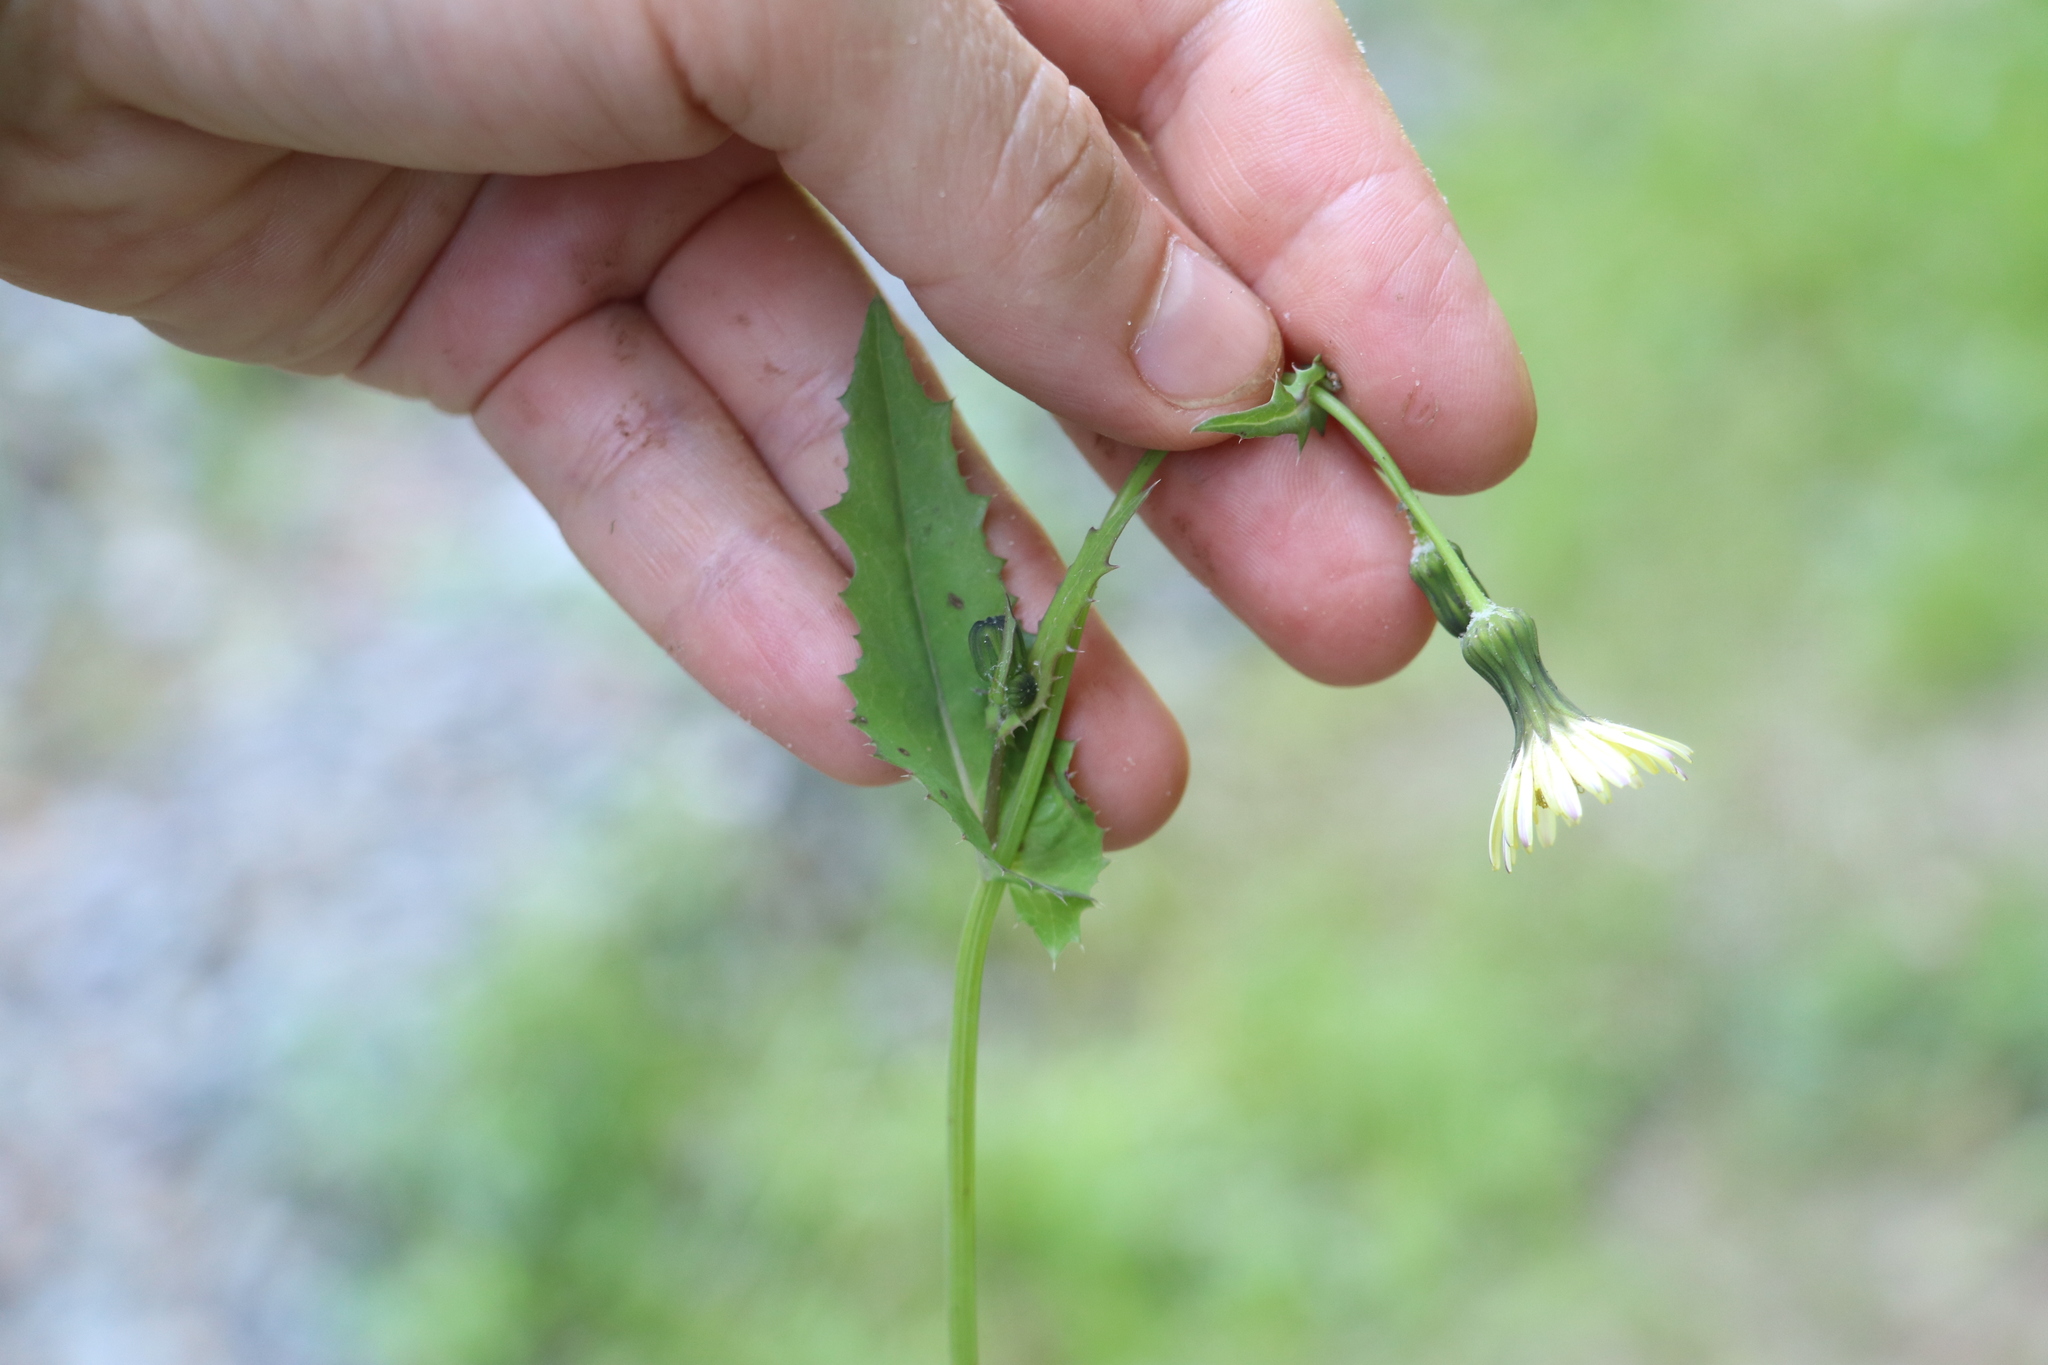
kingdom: Plantae
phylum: Tracheophyta
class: Magnoliopsida
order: Asterales
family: Asteraceae
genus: Sonchus
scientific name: Sonchus oleraceus
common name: Common sowthistle
